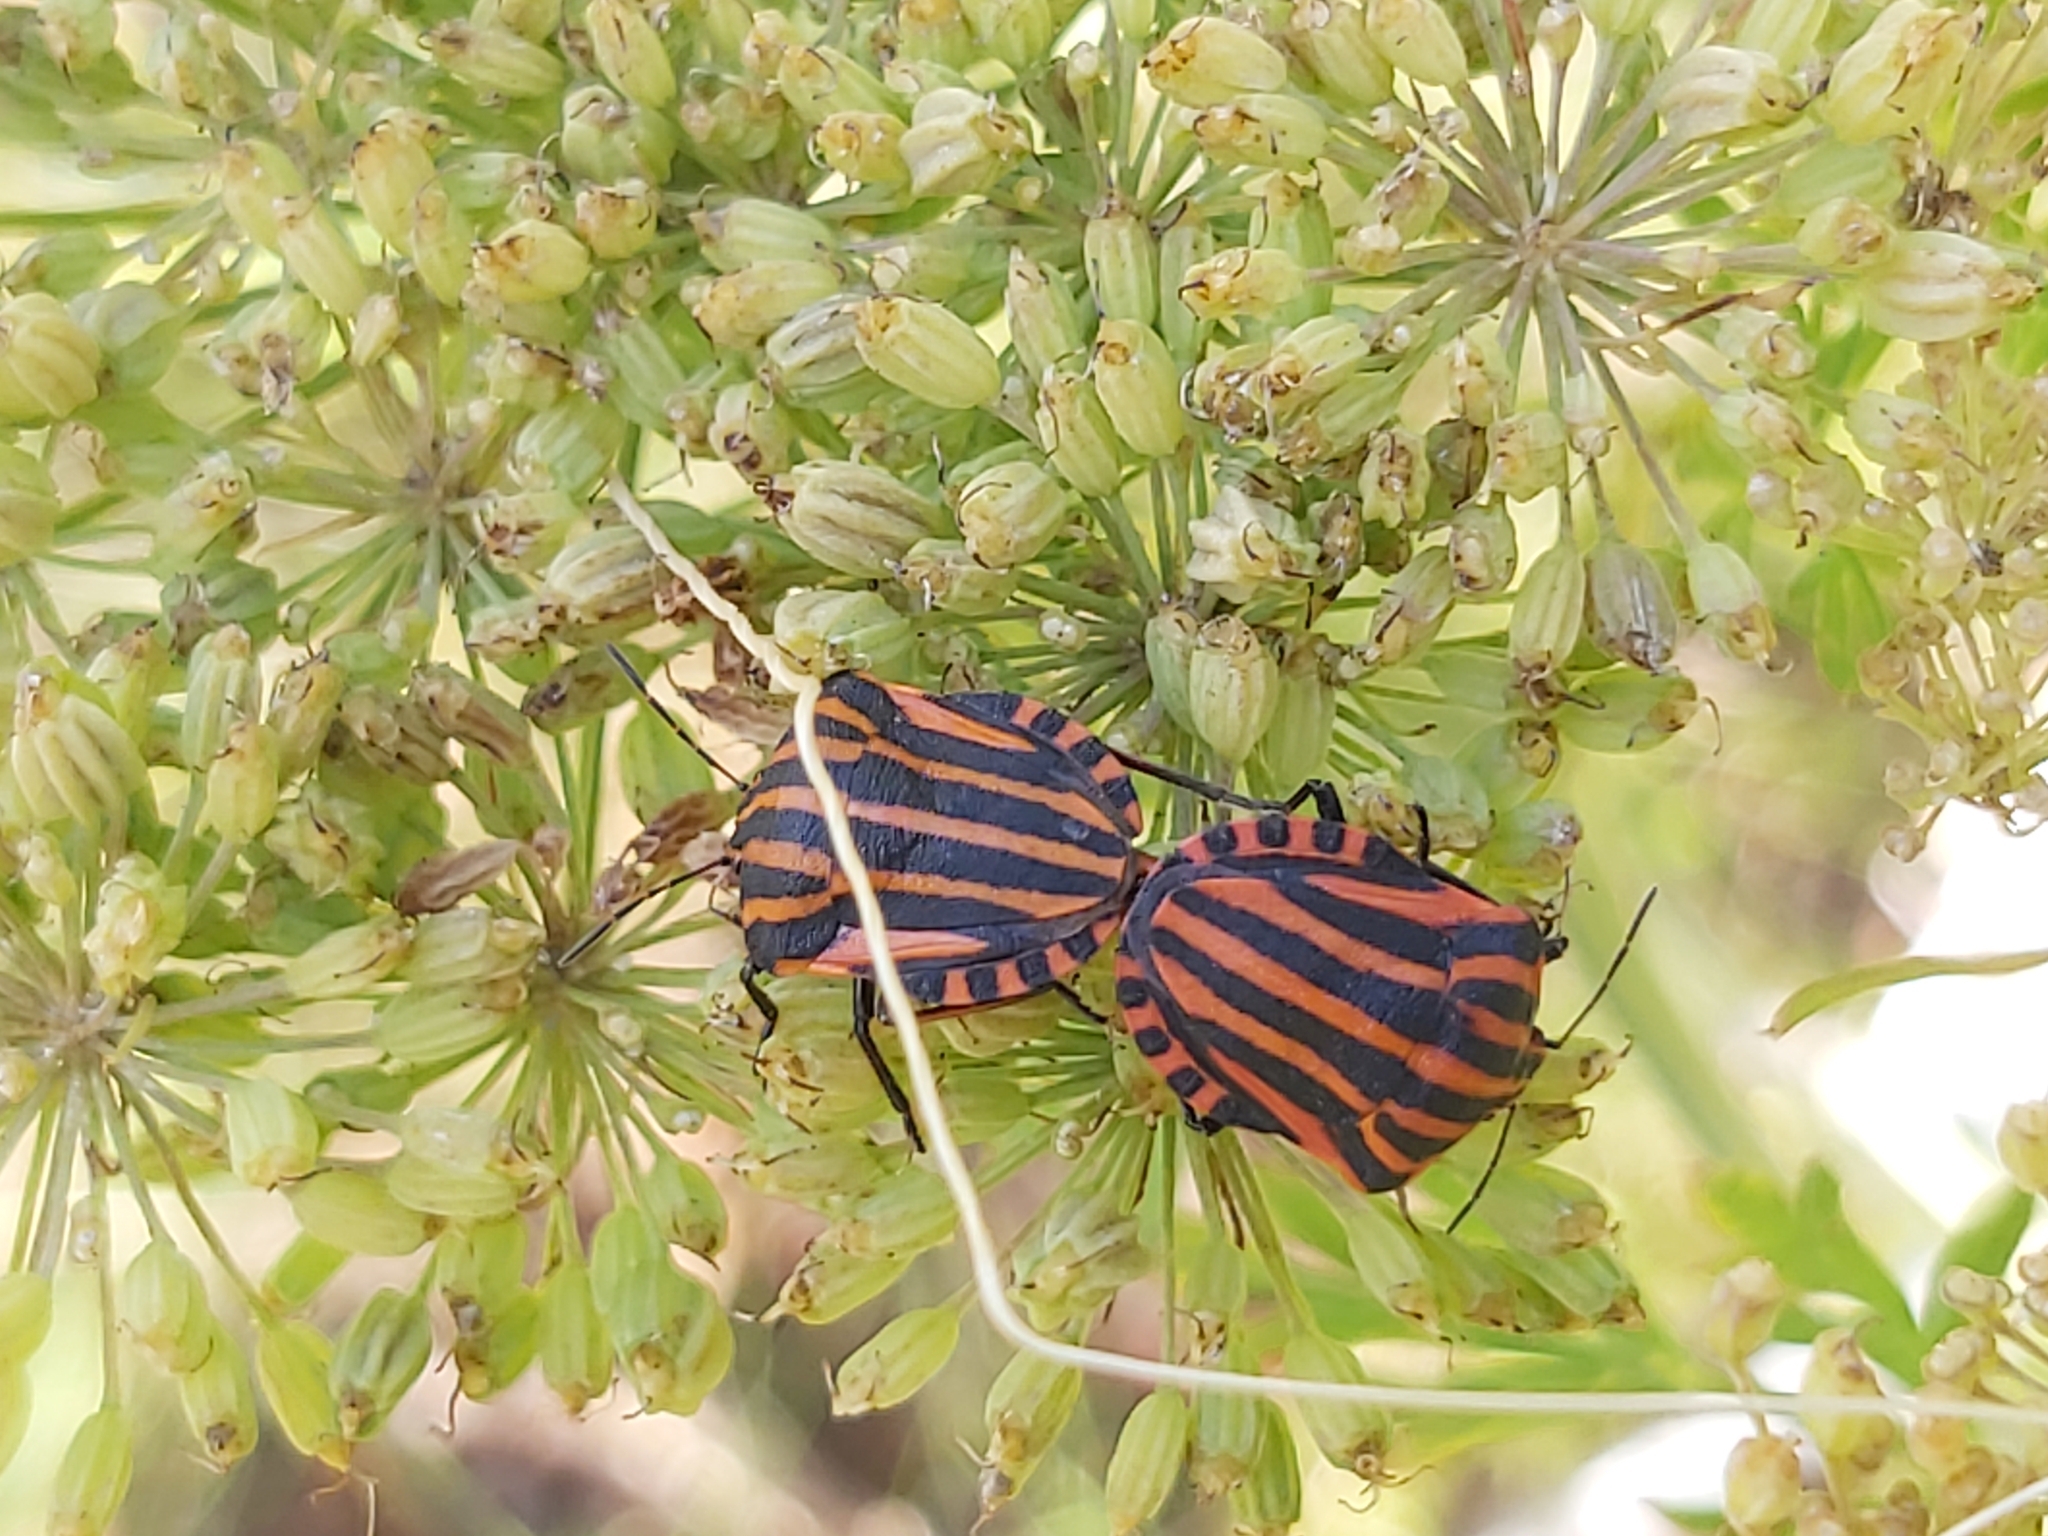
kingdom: Animalia
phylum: Arthropoda
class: Insecta
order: Hemiptera
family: Pentatomidae
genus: Graphosoma
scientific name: Graphosoma italicum
